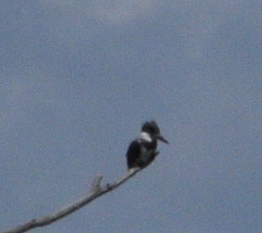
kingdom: Animalia
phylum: Chordata
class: Aves
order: Coraciiformes
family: Alcedinidae
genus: Megaceryle
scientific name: Megaceryle alcyon
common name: Belted kingfisher
